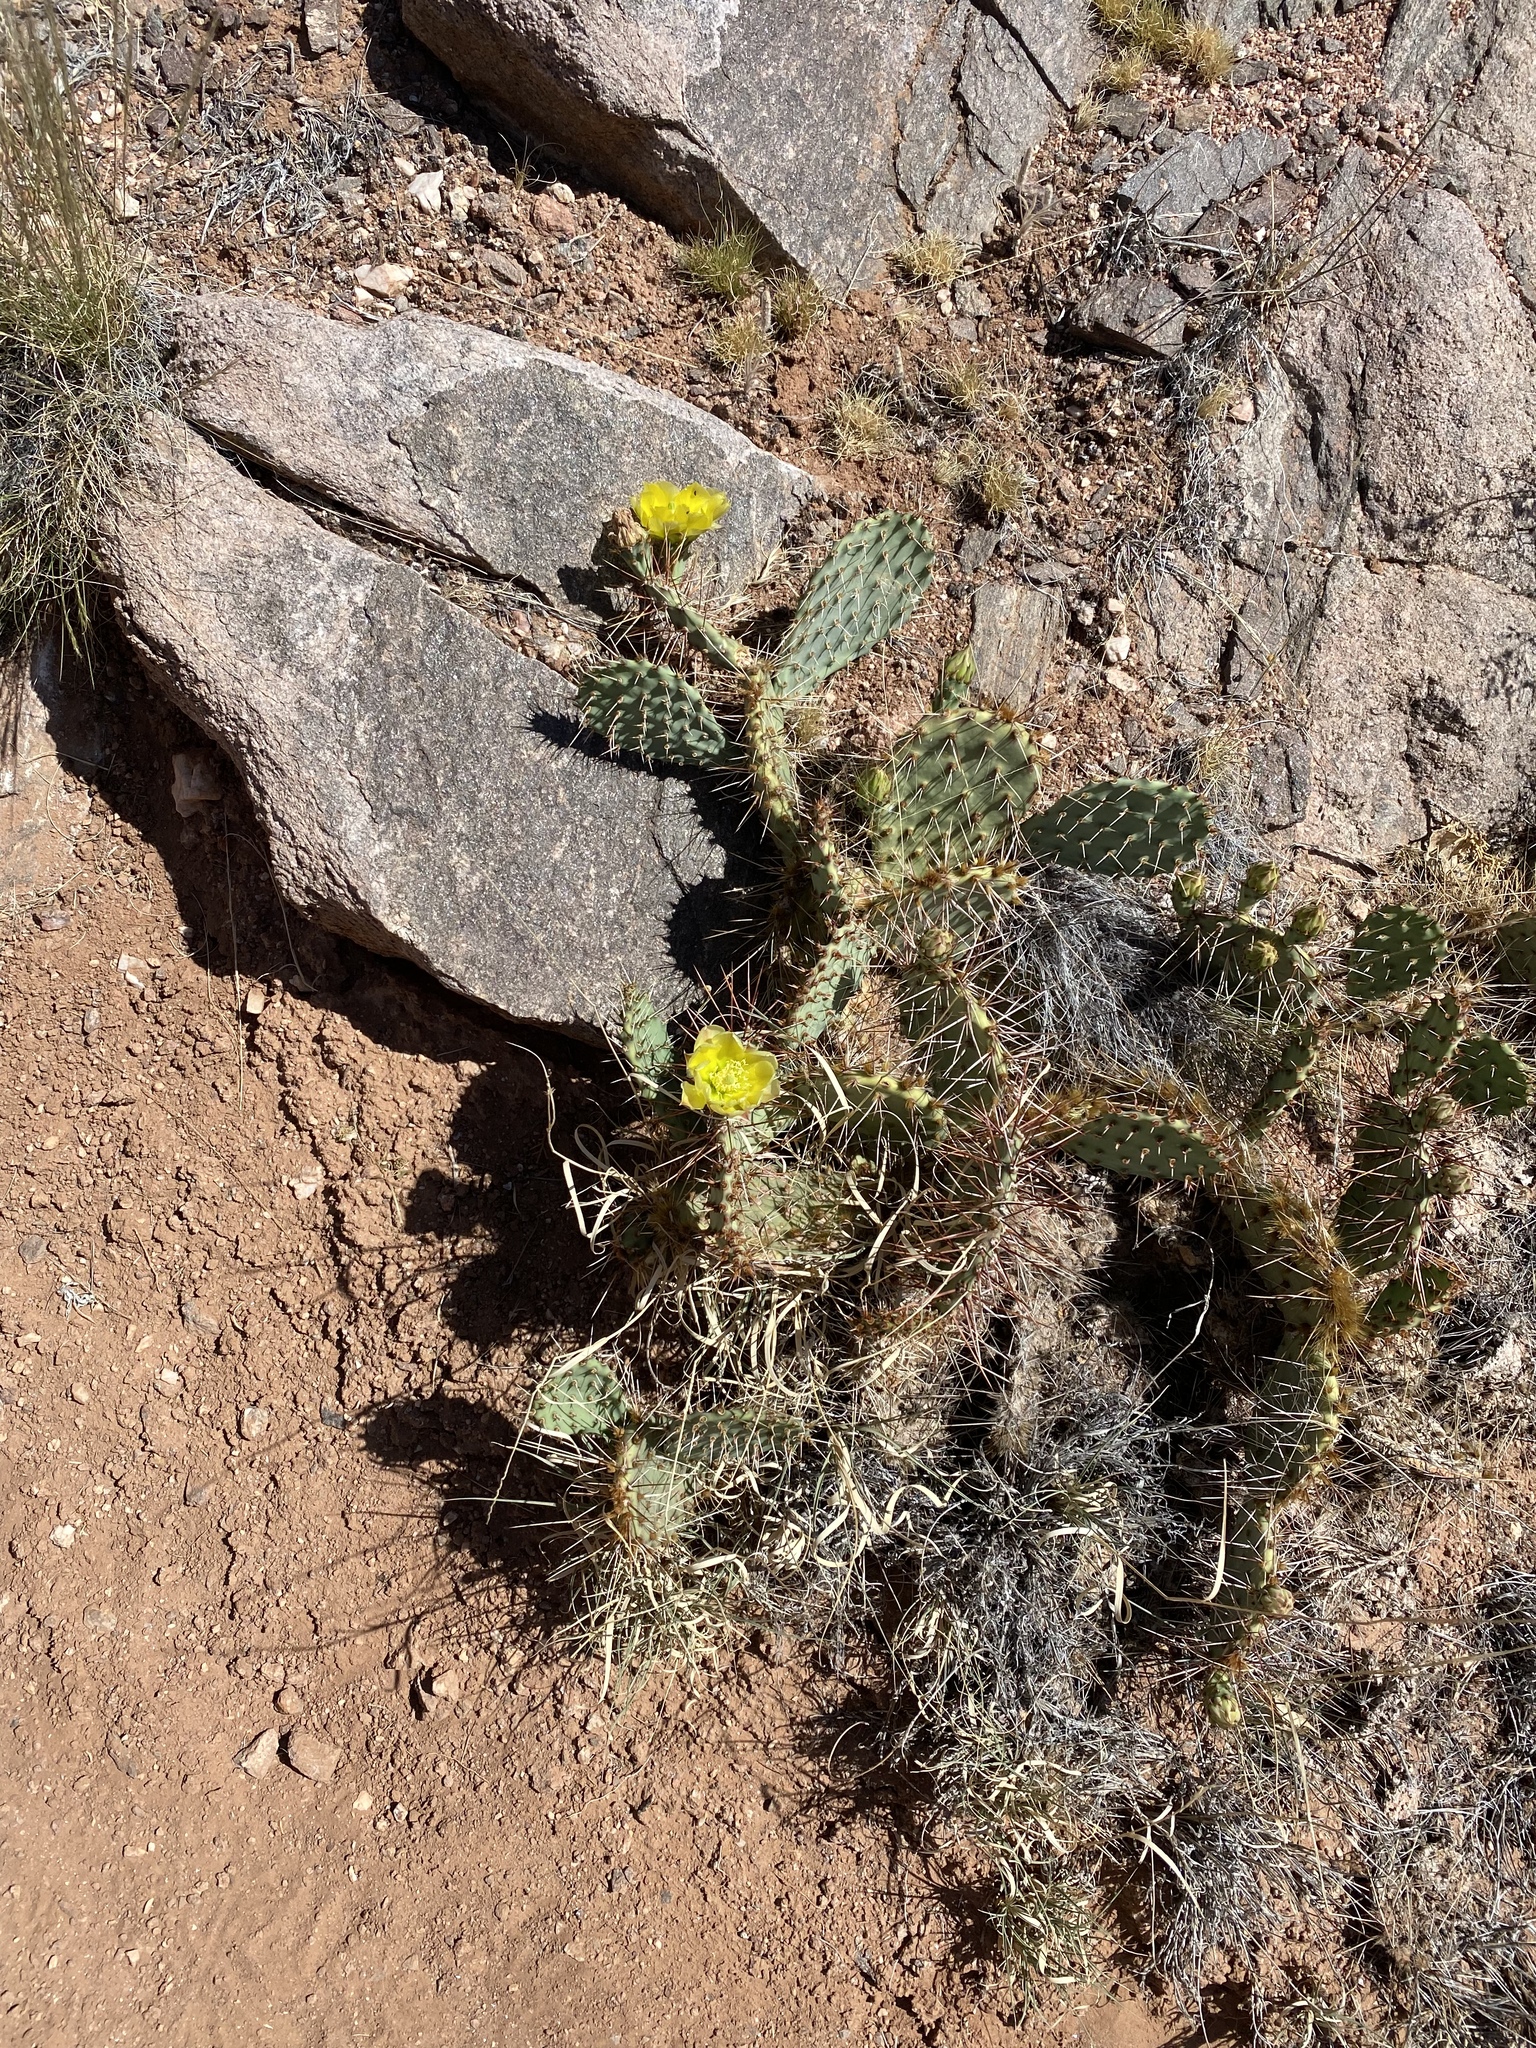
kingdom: Plantae
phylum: Tracheophyta
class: Magnoliopsida
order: Caryophyllales
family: Cactaceae
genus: Opuntia
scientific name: Opuntia phaeacantha
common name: New mexico prickly-pear
